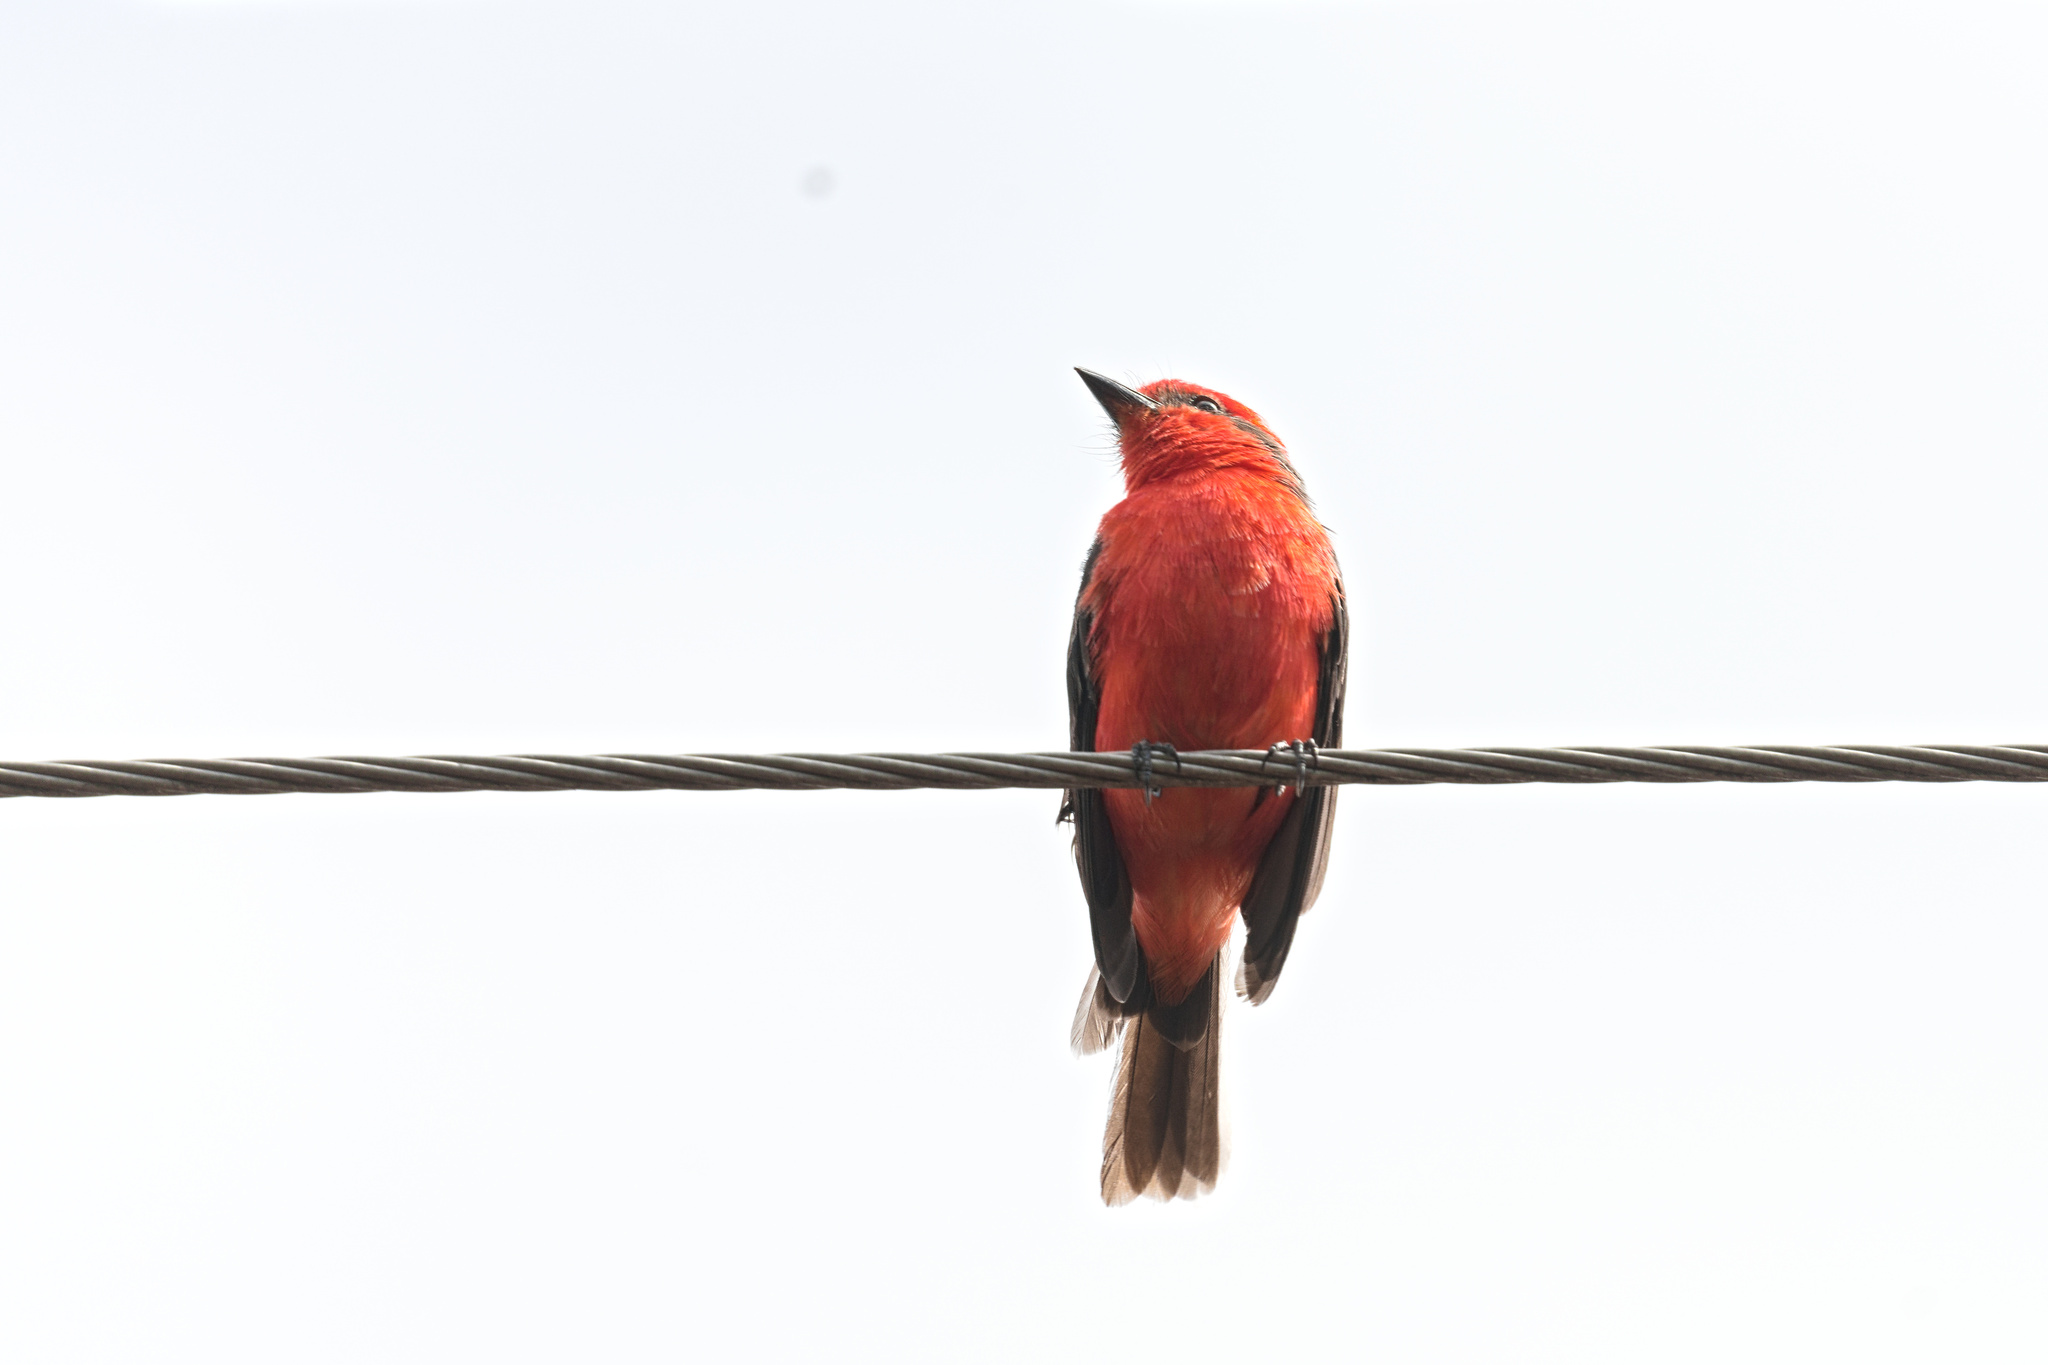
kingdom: Animalia
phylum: Chordata
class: Aves
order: Passeriformes
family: Tyrannidae
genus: Pyrocephalus
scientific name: Pyrocephalus rubinus
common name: Vermilion flycatcher
